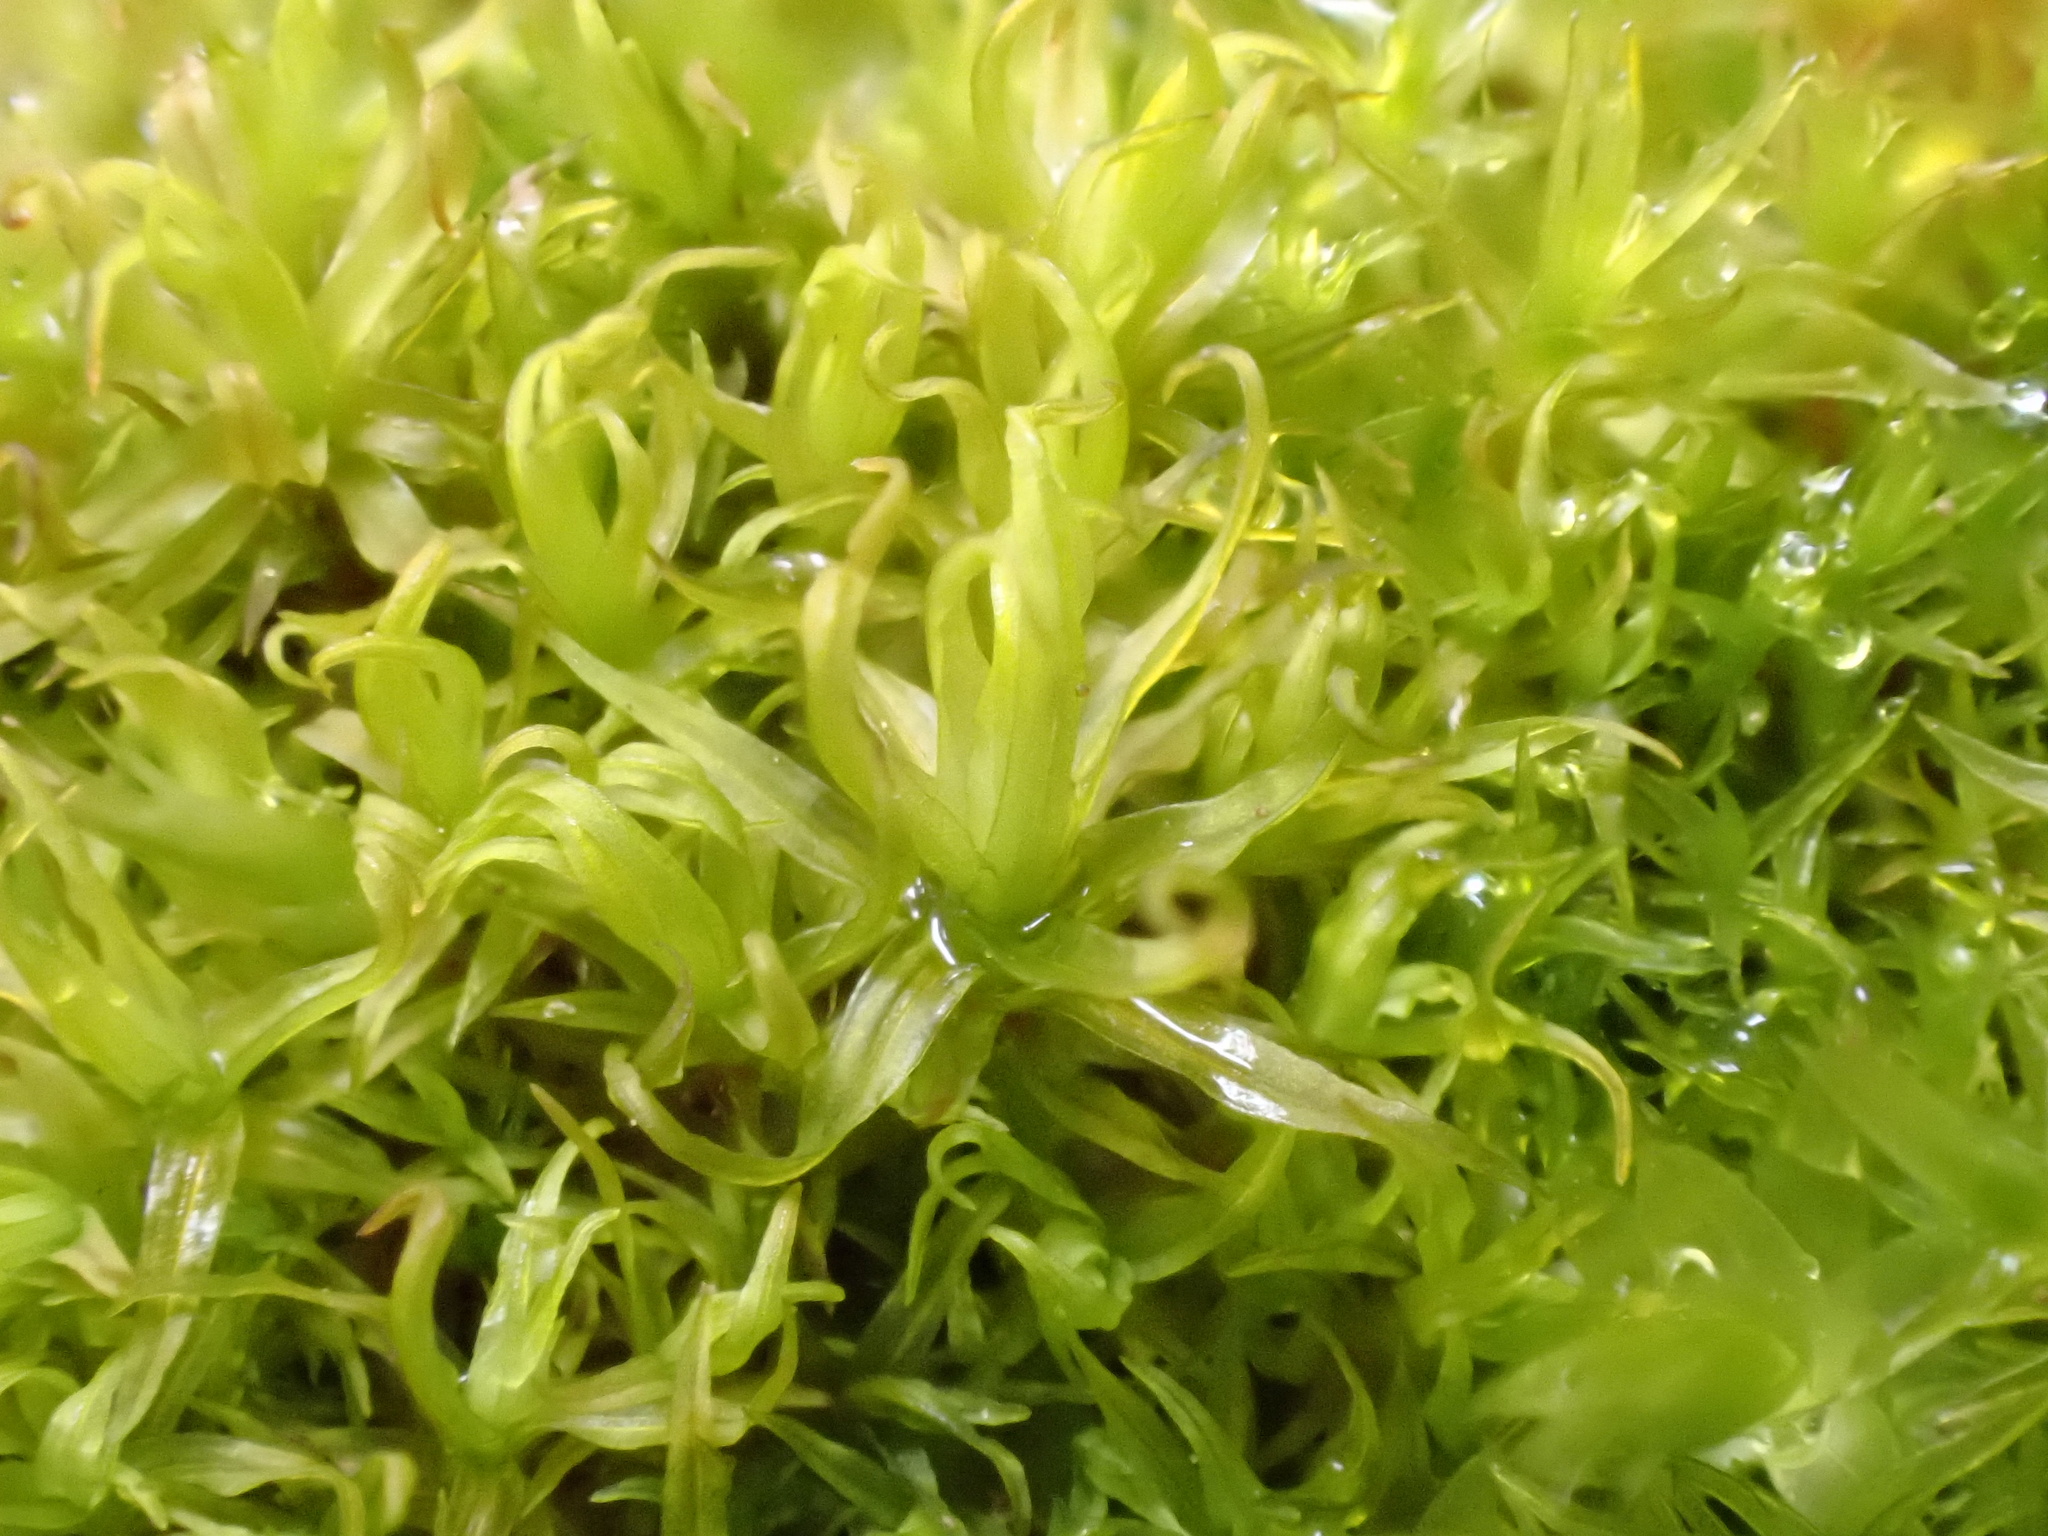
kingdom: Plantae
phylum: Bryophyta
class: Bryopsida
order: Pottiales
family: Pottiaceae
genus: Husnotiella
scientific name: Husnotiella sinuosa
